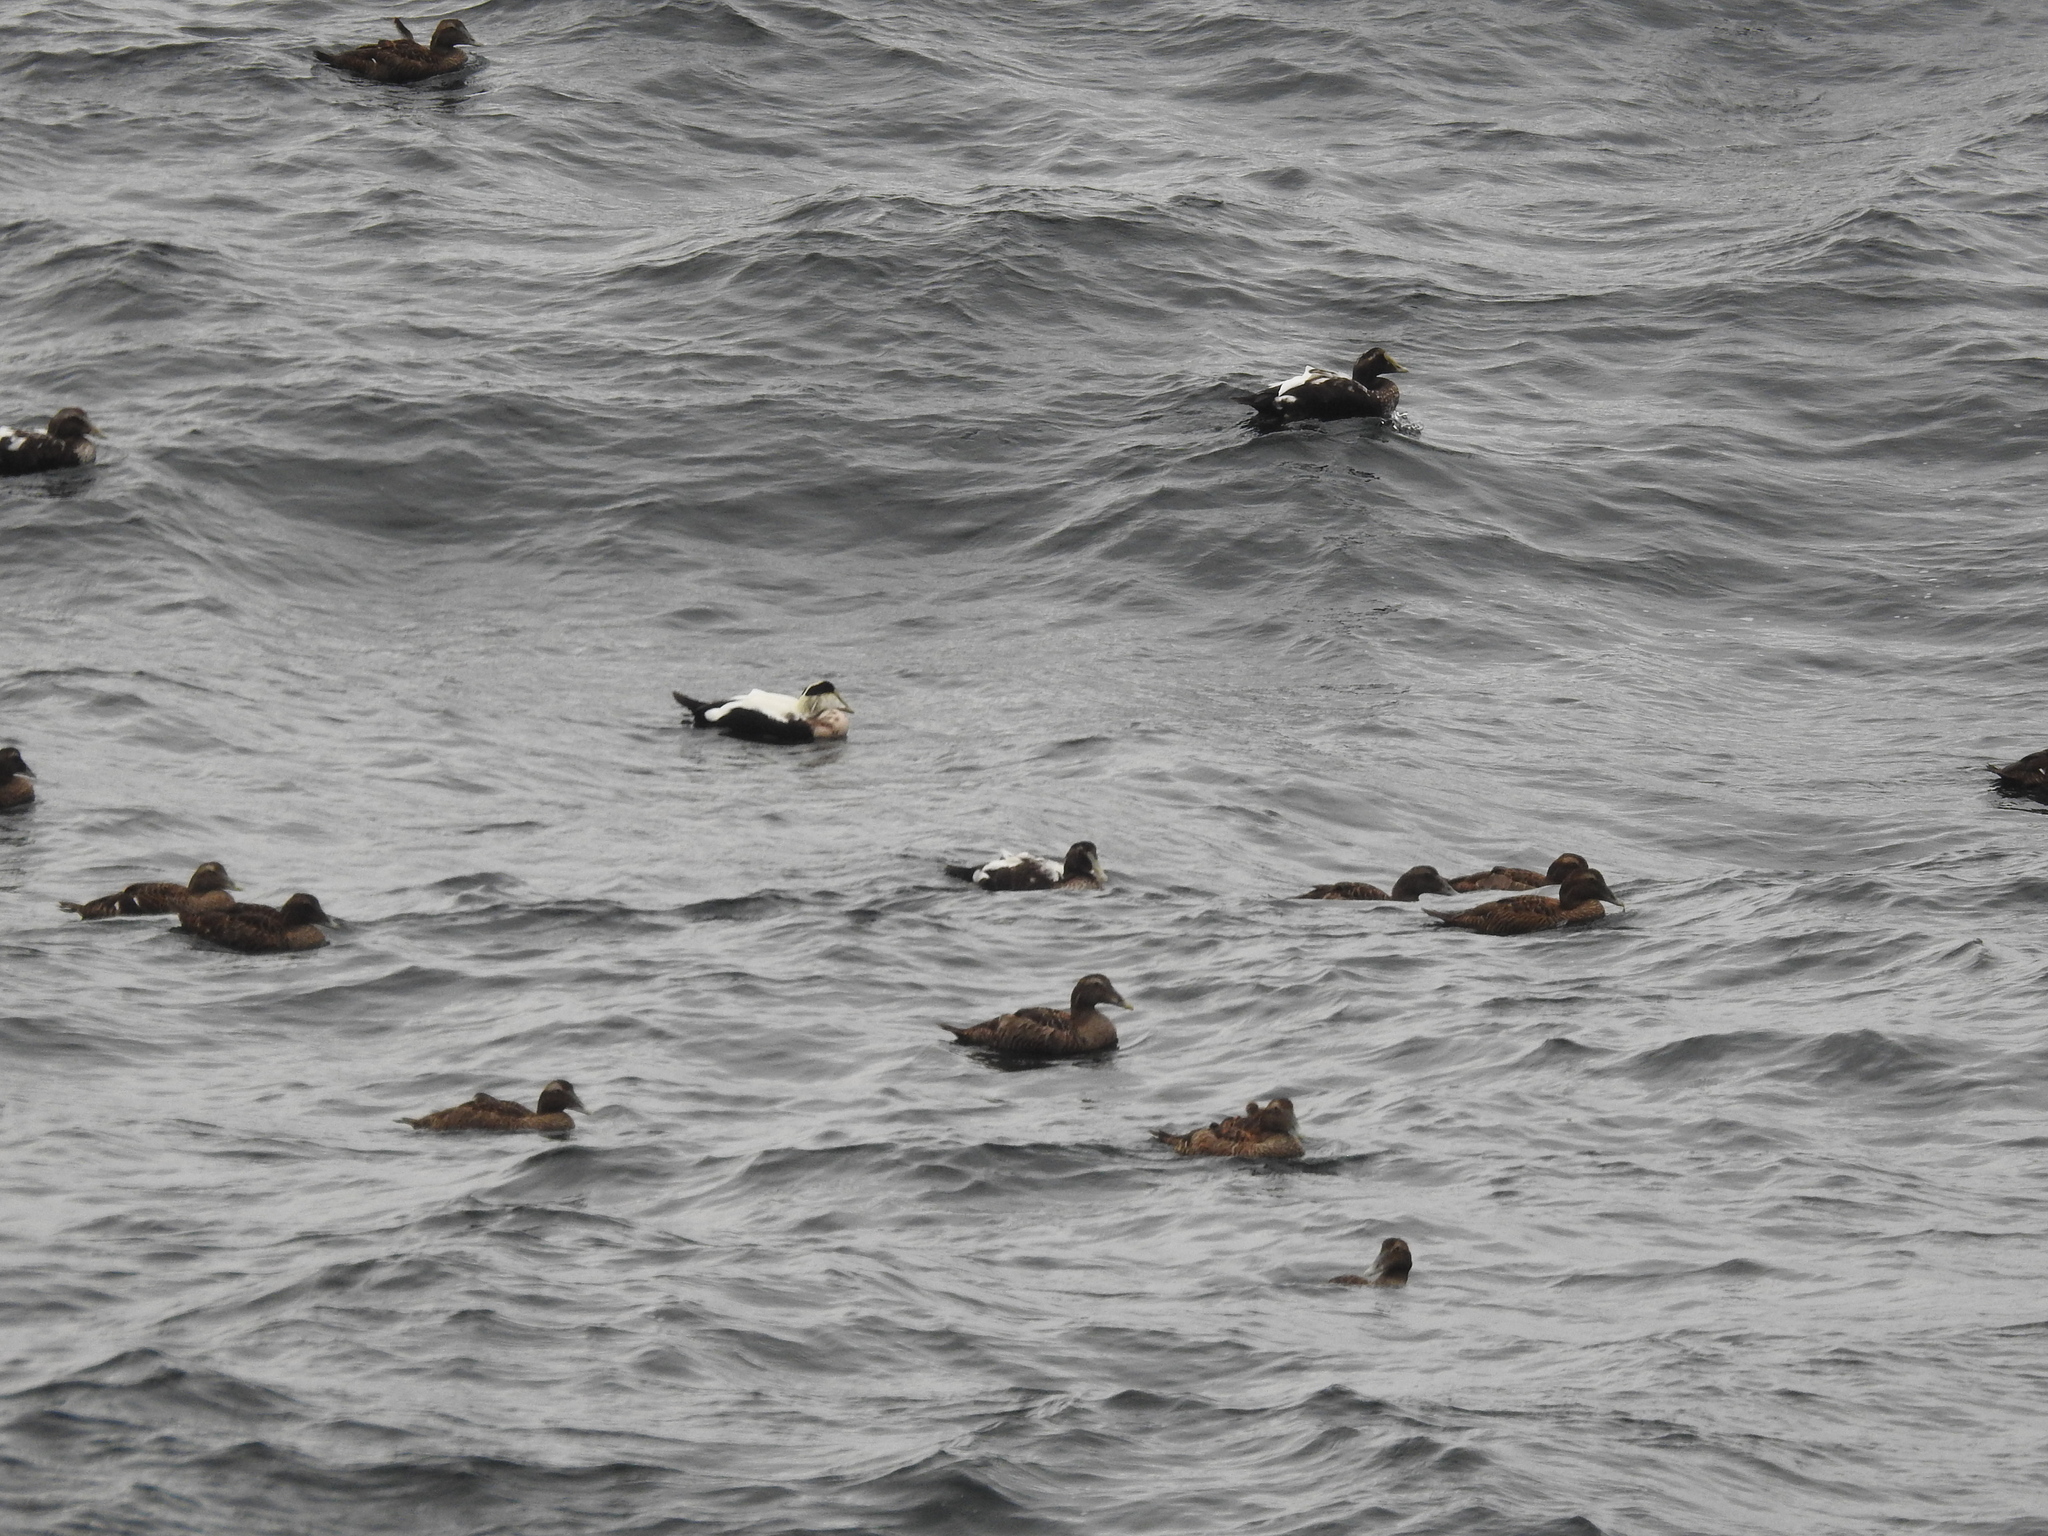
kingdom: Animalia
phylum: Chordata
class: Aves
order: Anseriformes
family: Anatidae
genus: Somateria
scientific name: Somateria mollissima
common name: Common eider
